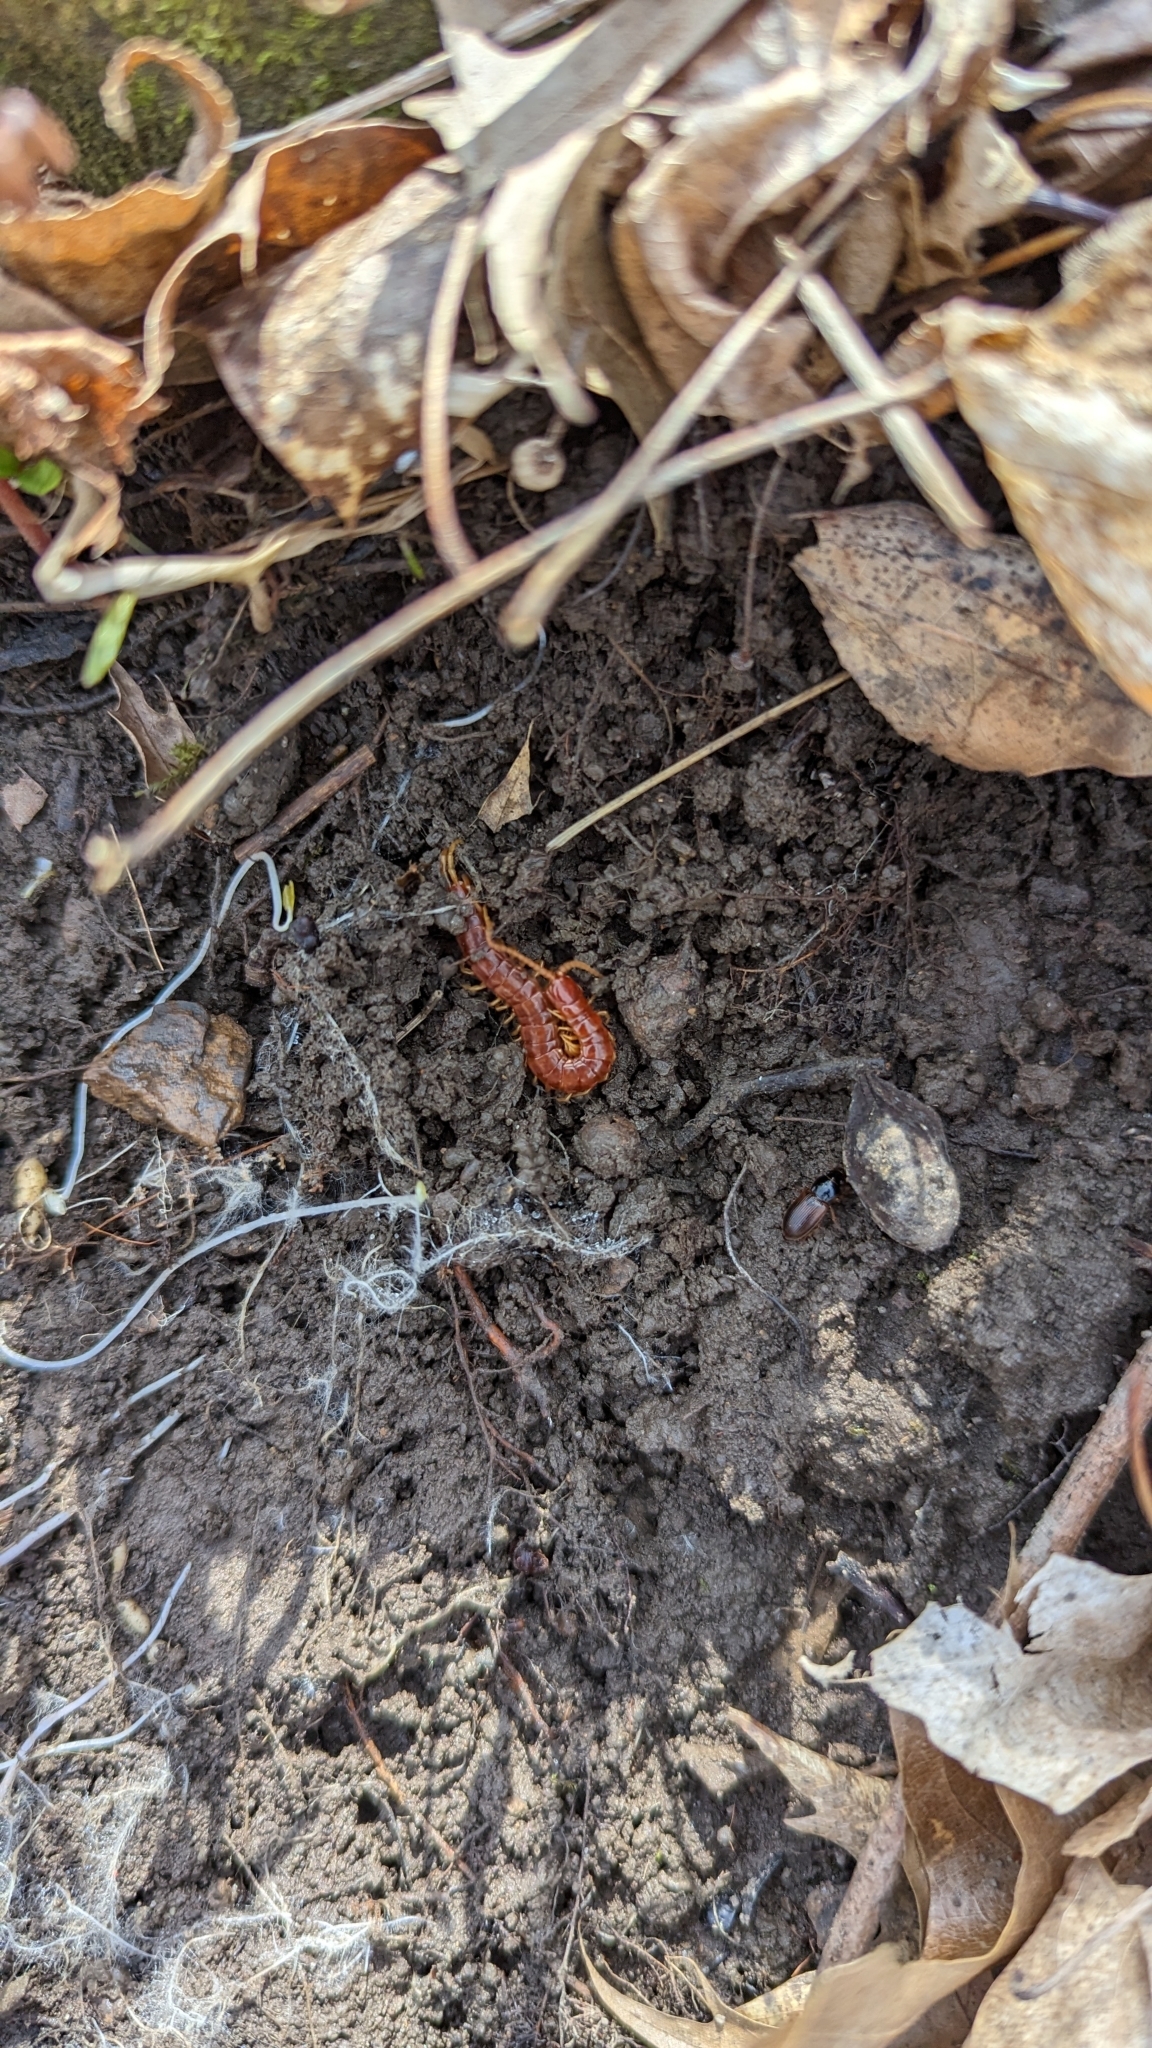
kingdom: Animalia
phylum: Arthropoda
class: Chilopoda
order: Scolopendromorpha
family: Scolopocryptopidae
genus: Scolopocryptops
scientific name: Scolopocryptops sexspinosus
